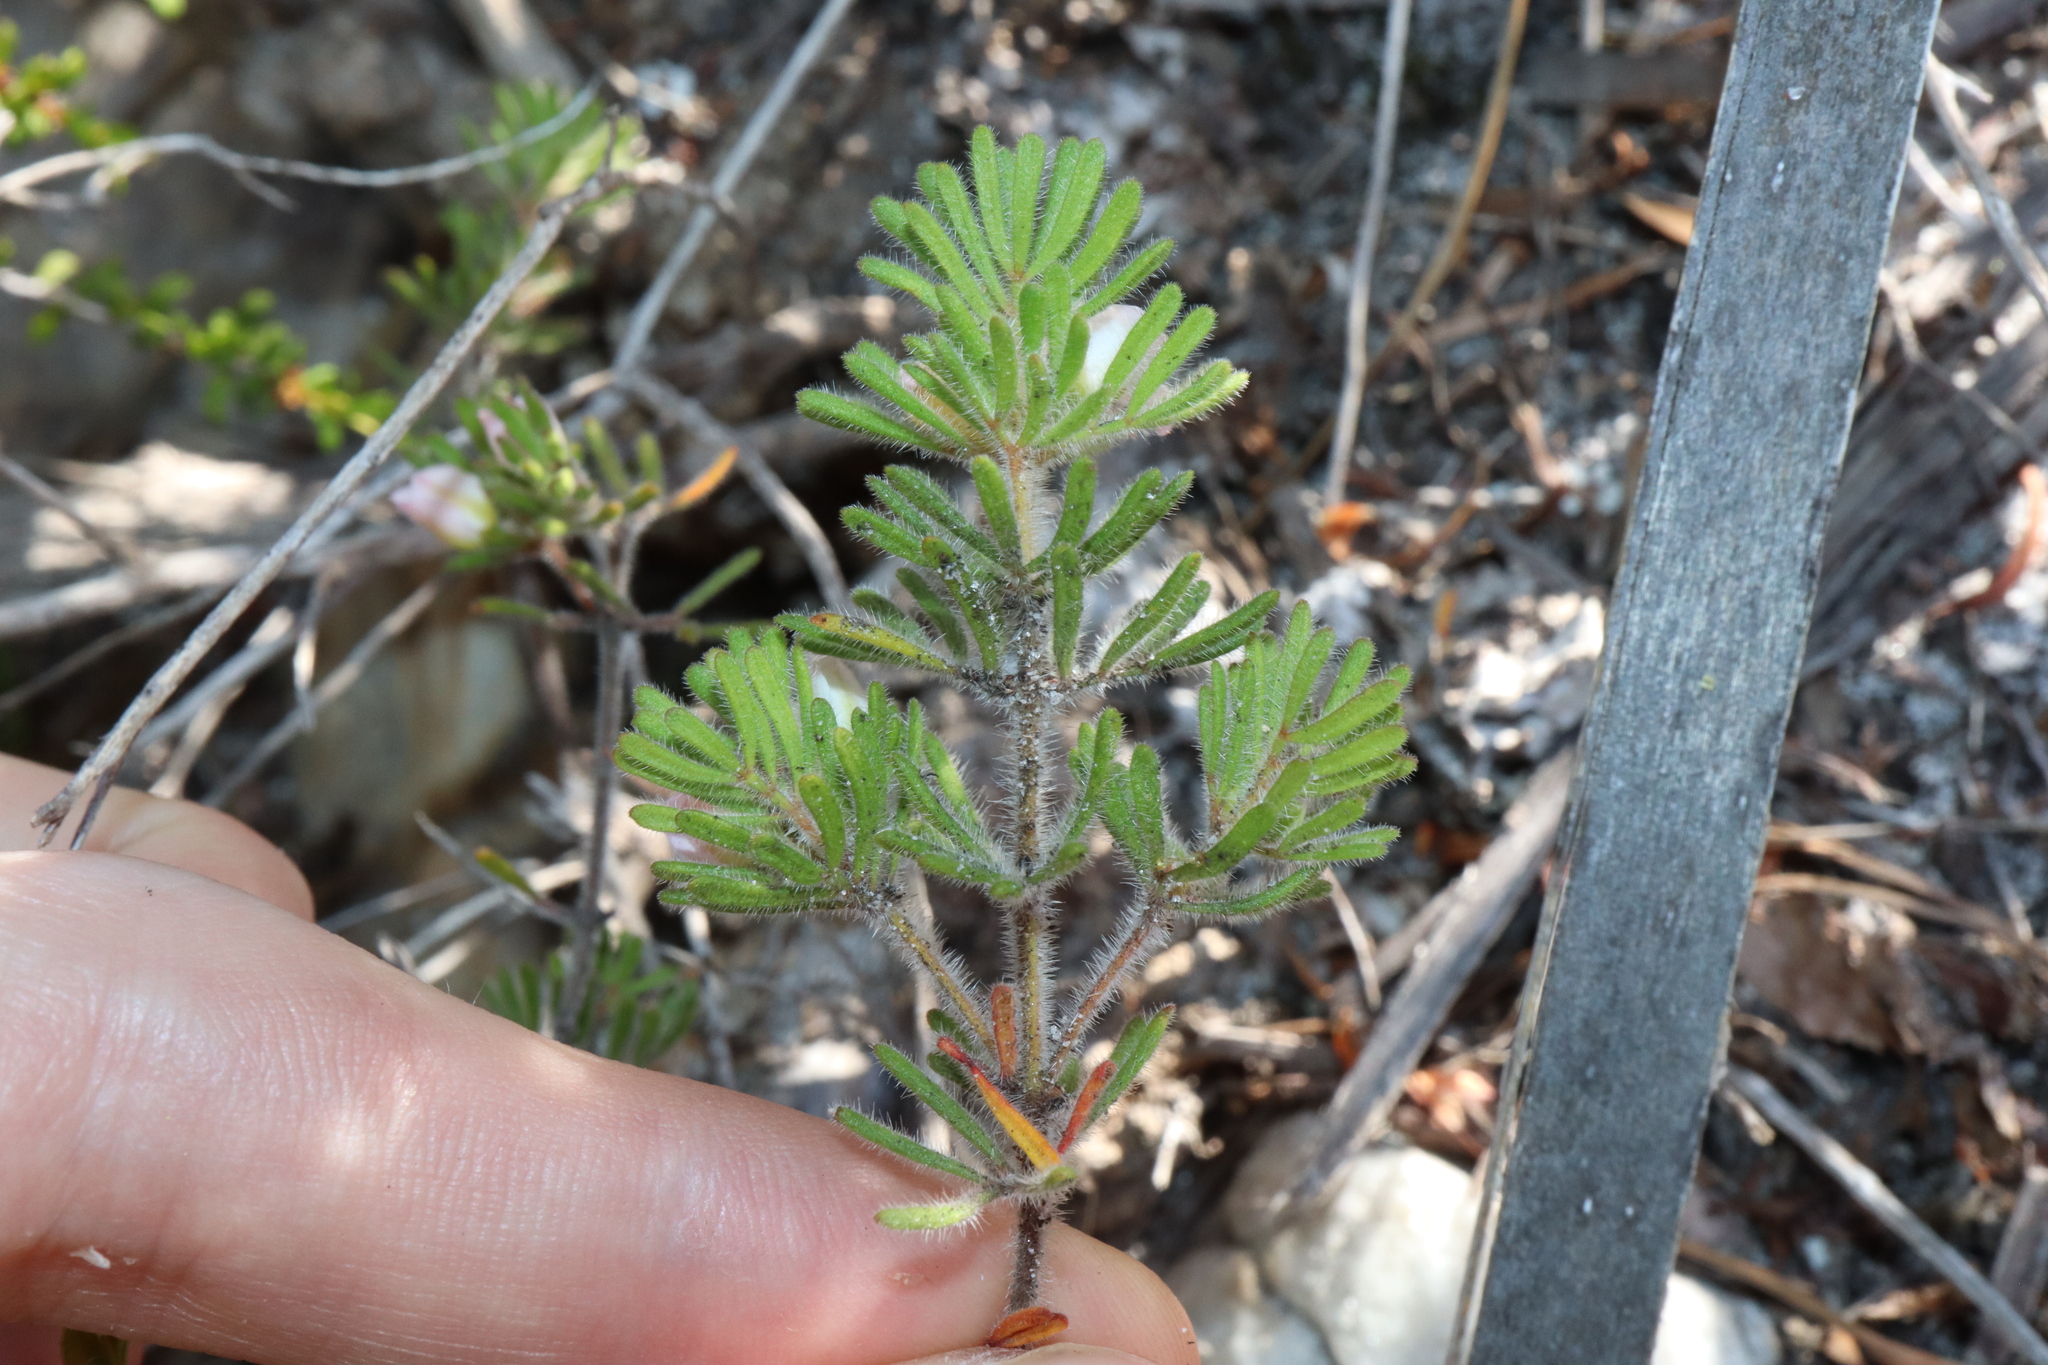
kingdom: Plantae
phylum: Tracheophyta
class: Magnoliopsida
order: Sapindales
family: Rutaceae
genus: Boronia
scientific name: Boronia albiflora
